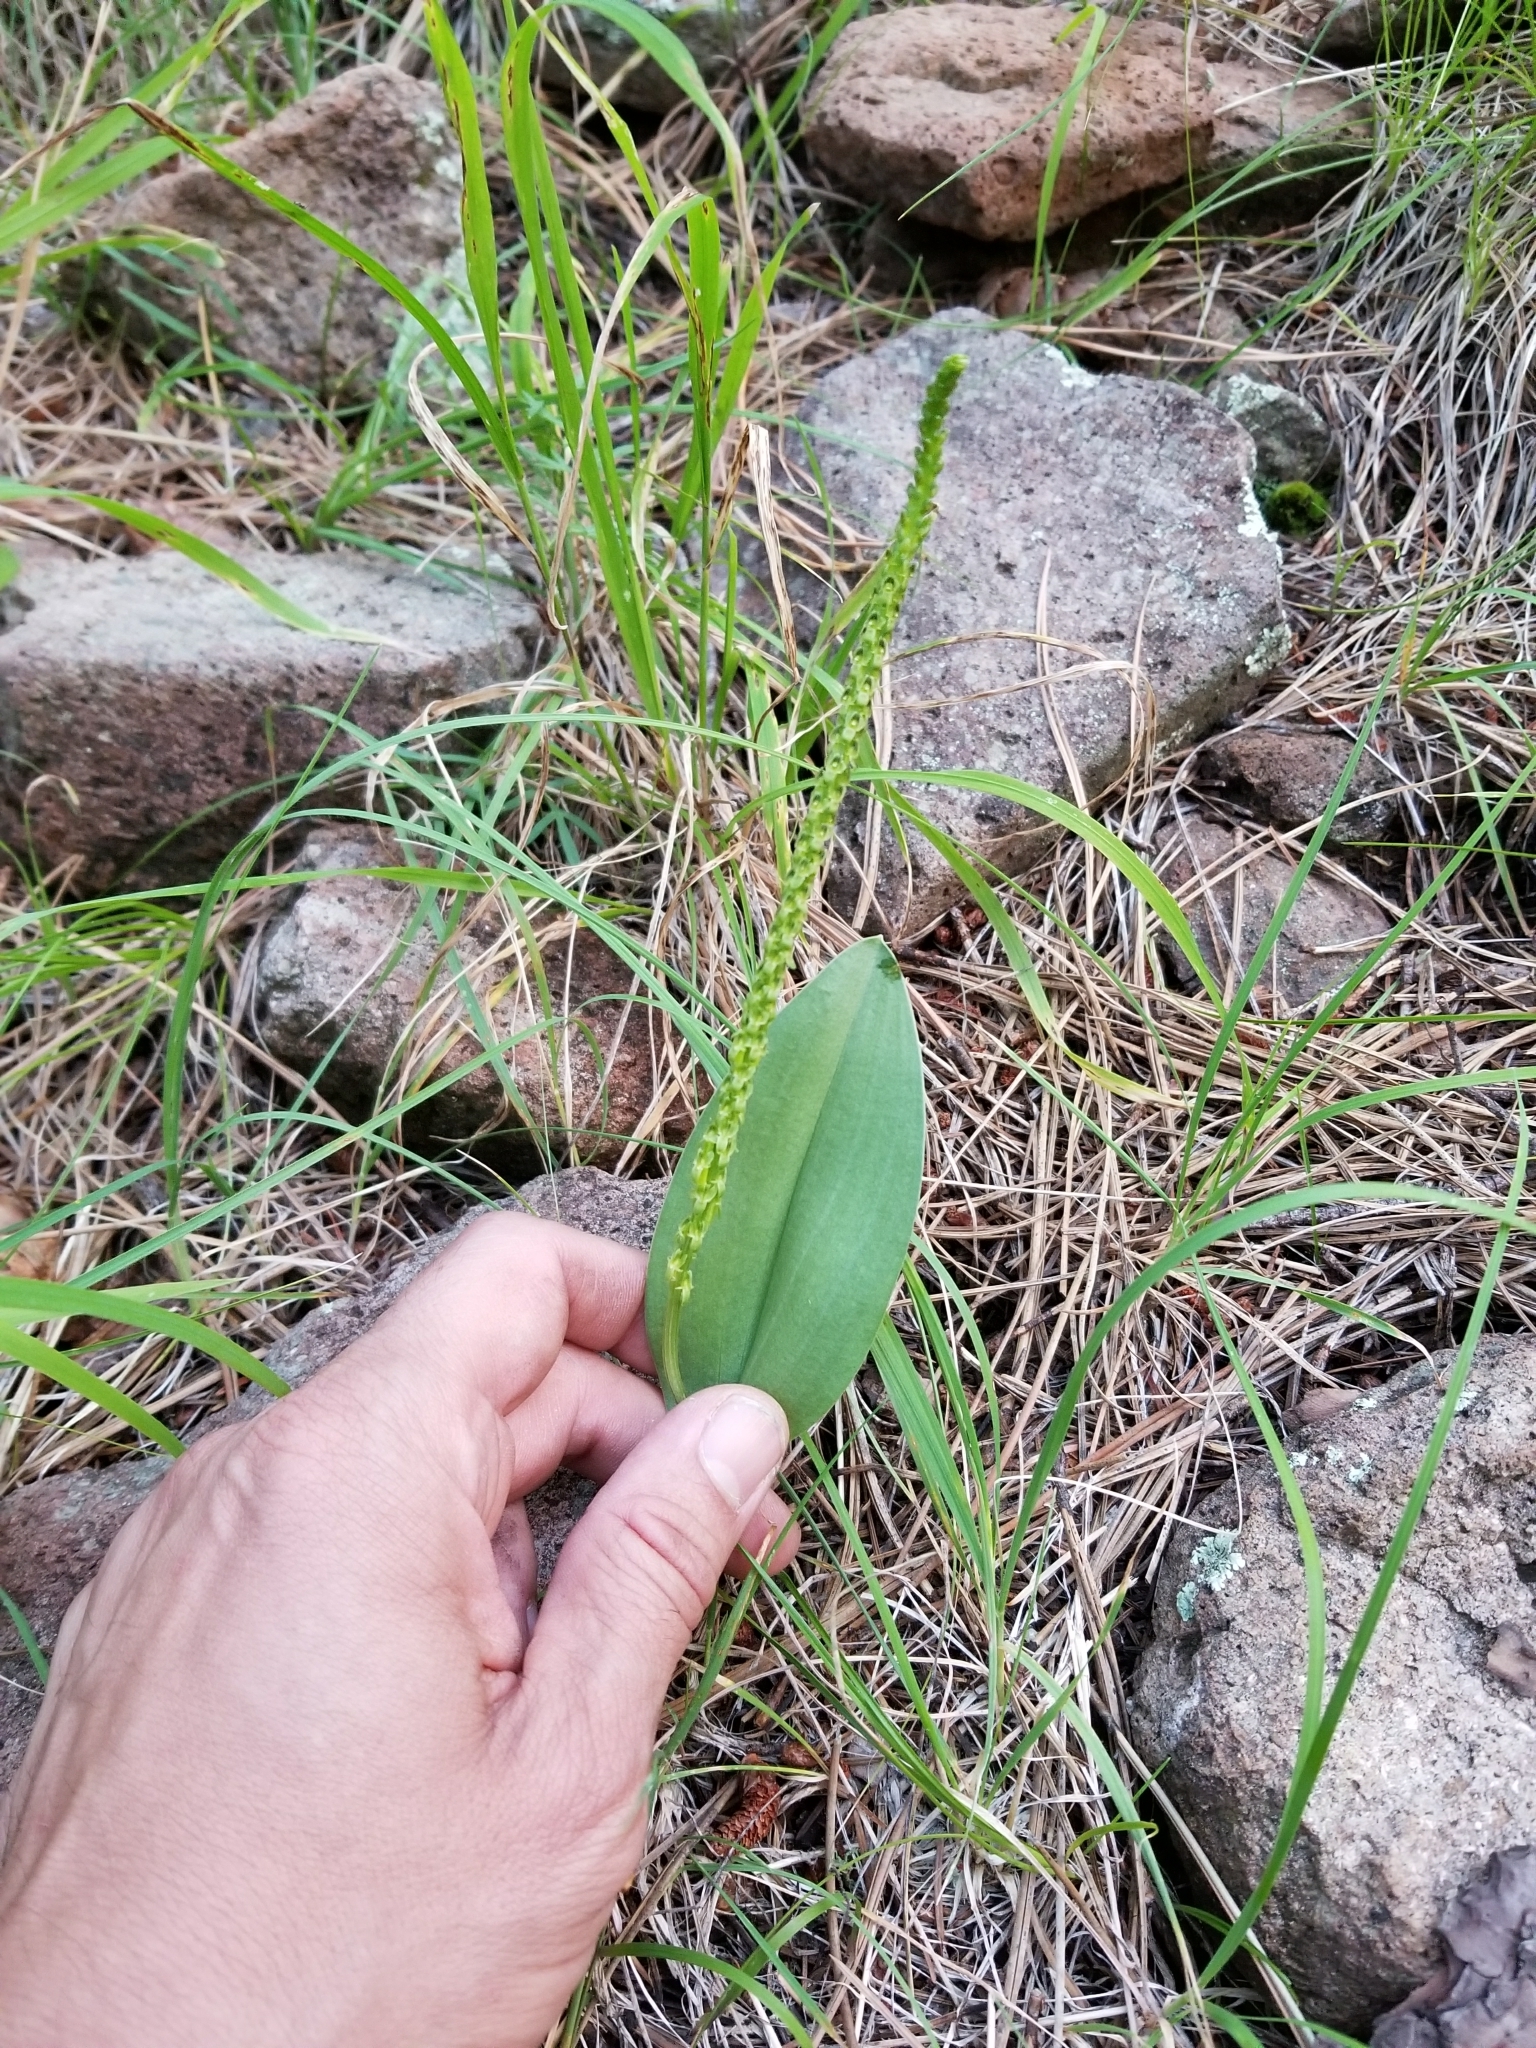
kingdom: Plantae
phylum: Tracheophyta
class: Liliopsida
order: Asparagales
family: Orchidaceae
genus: Malaxis
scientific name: Malaxis macrostachya
